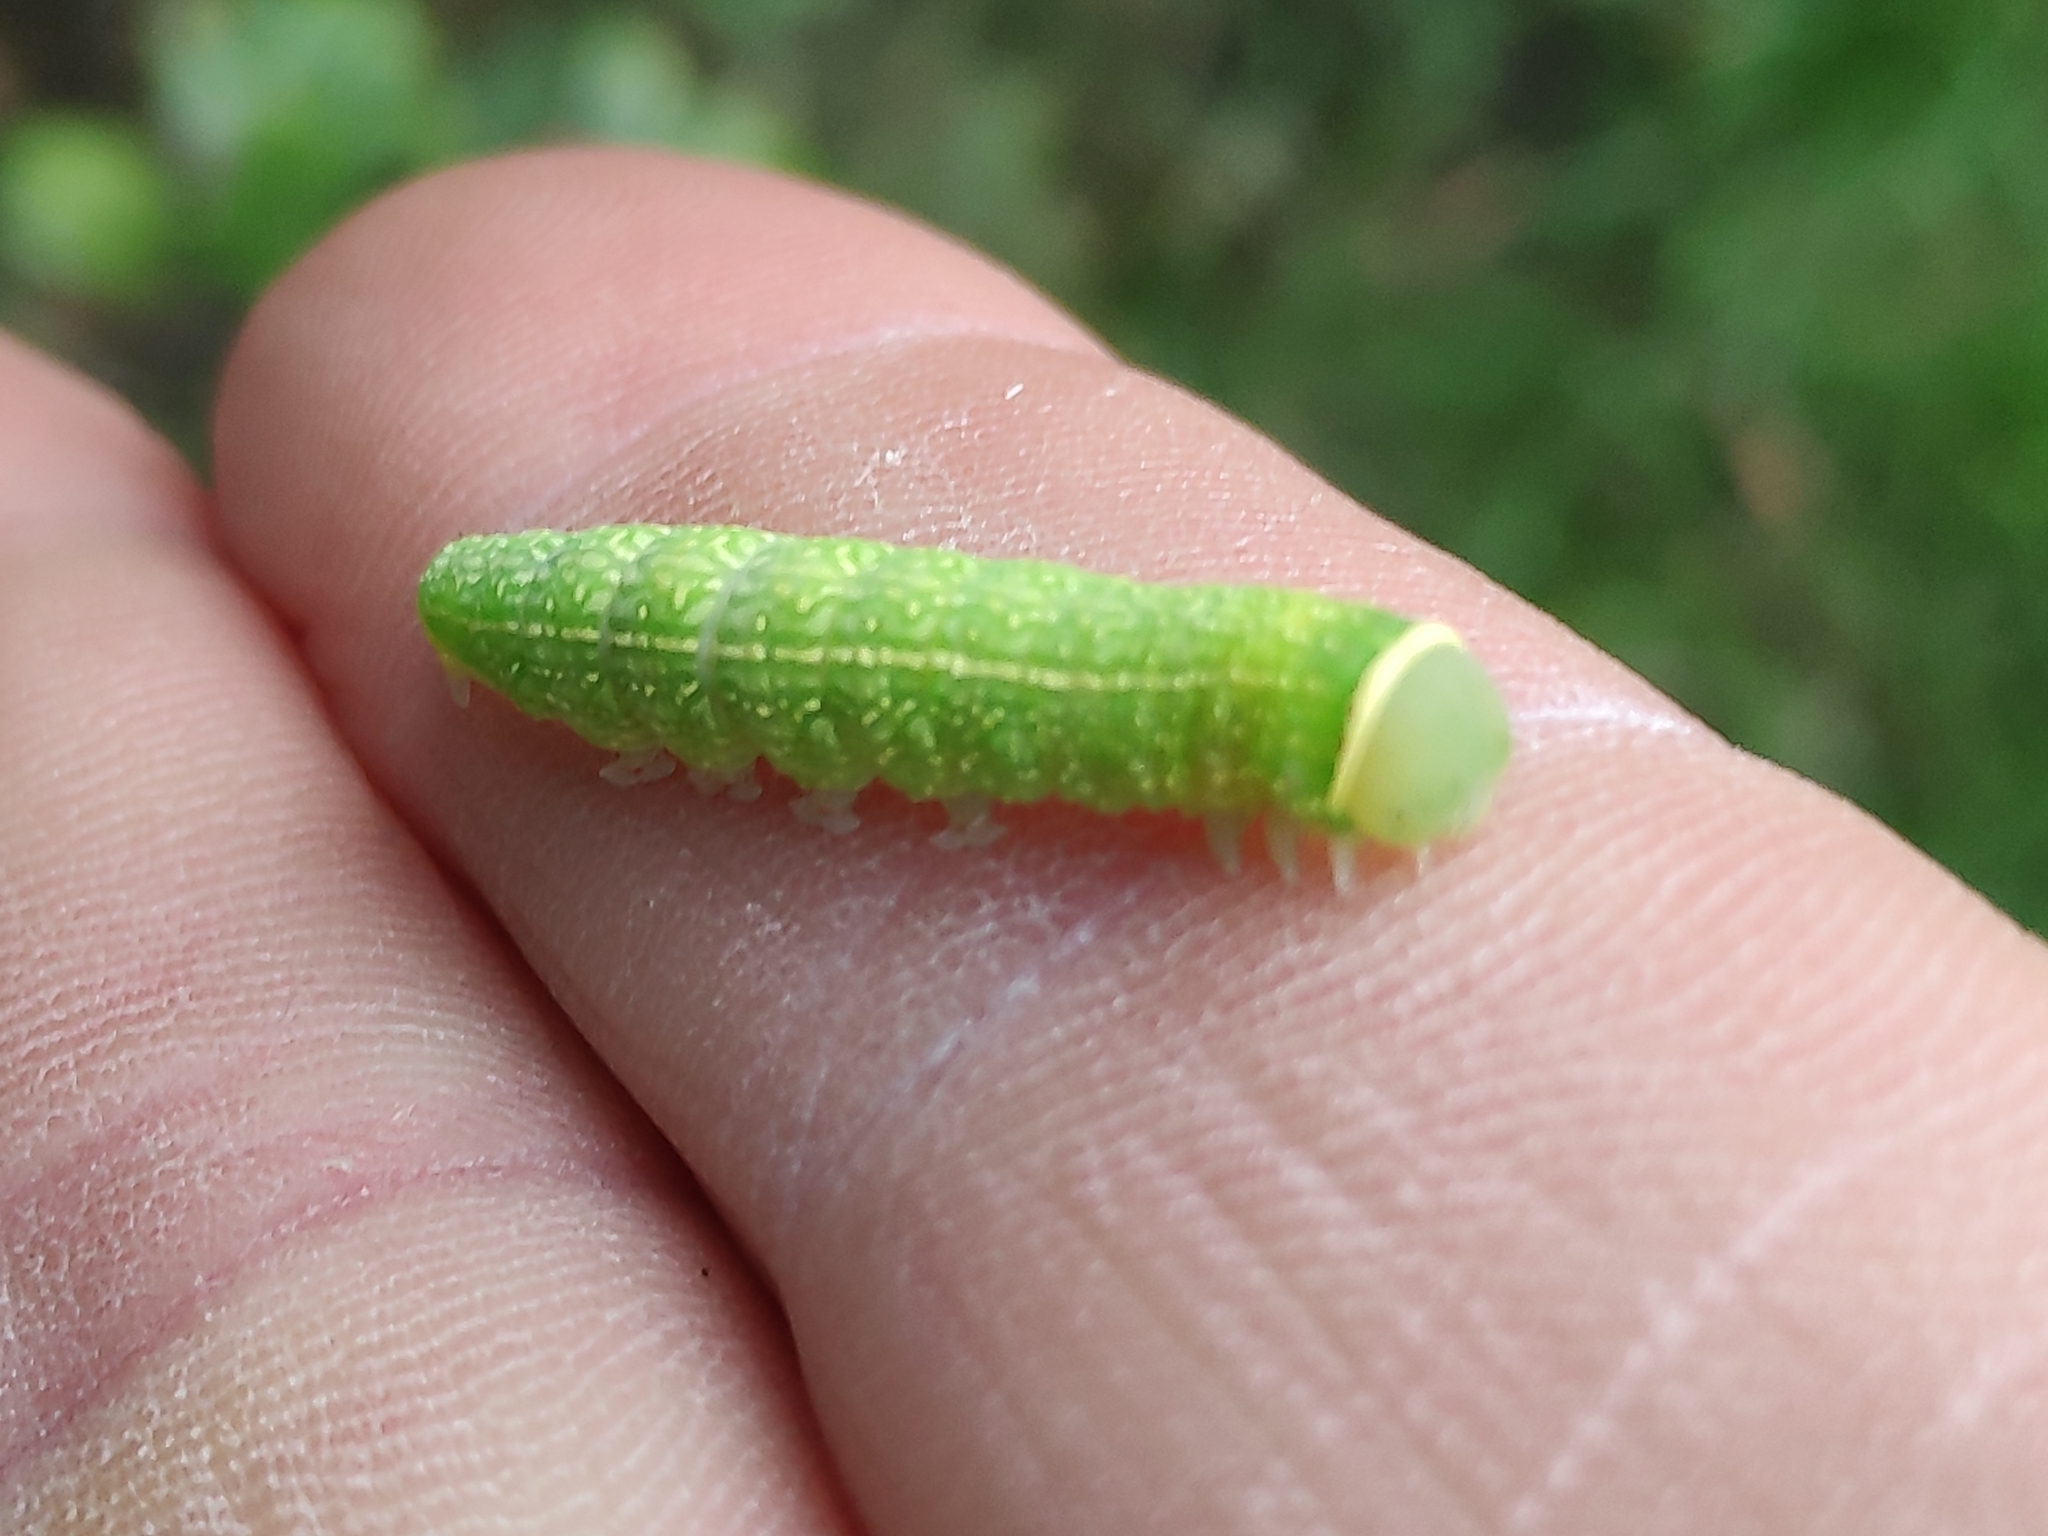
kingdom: Animalia
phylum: Arthropoda
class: Insecta
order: Lepidoptera
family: Nolidae
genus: Pseudoips
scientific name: Pseudoips prasinana
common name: Green silver-lines
